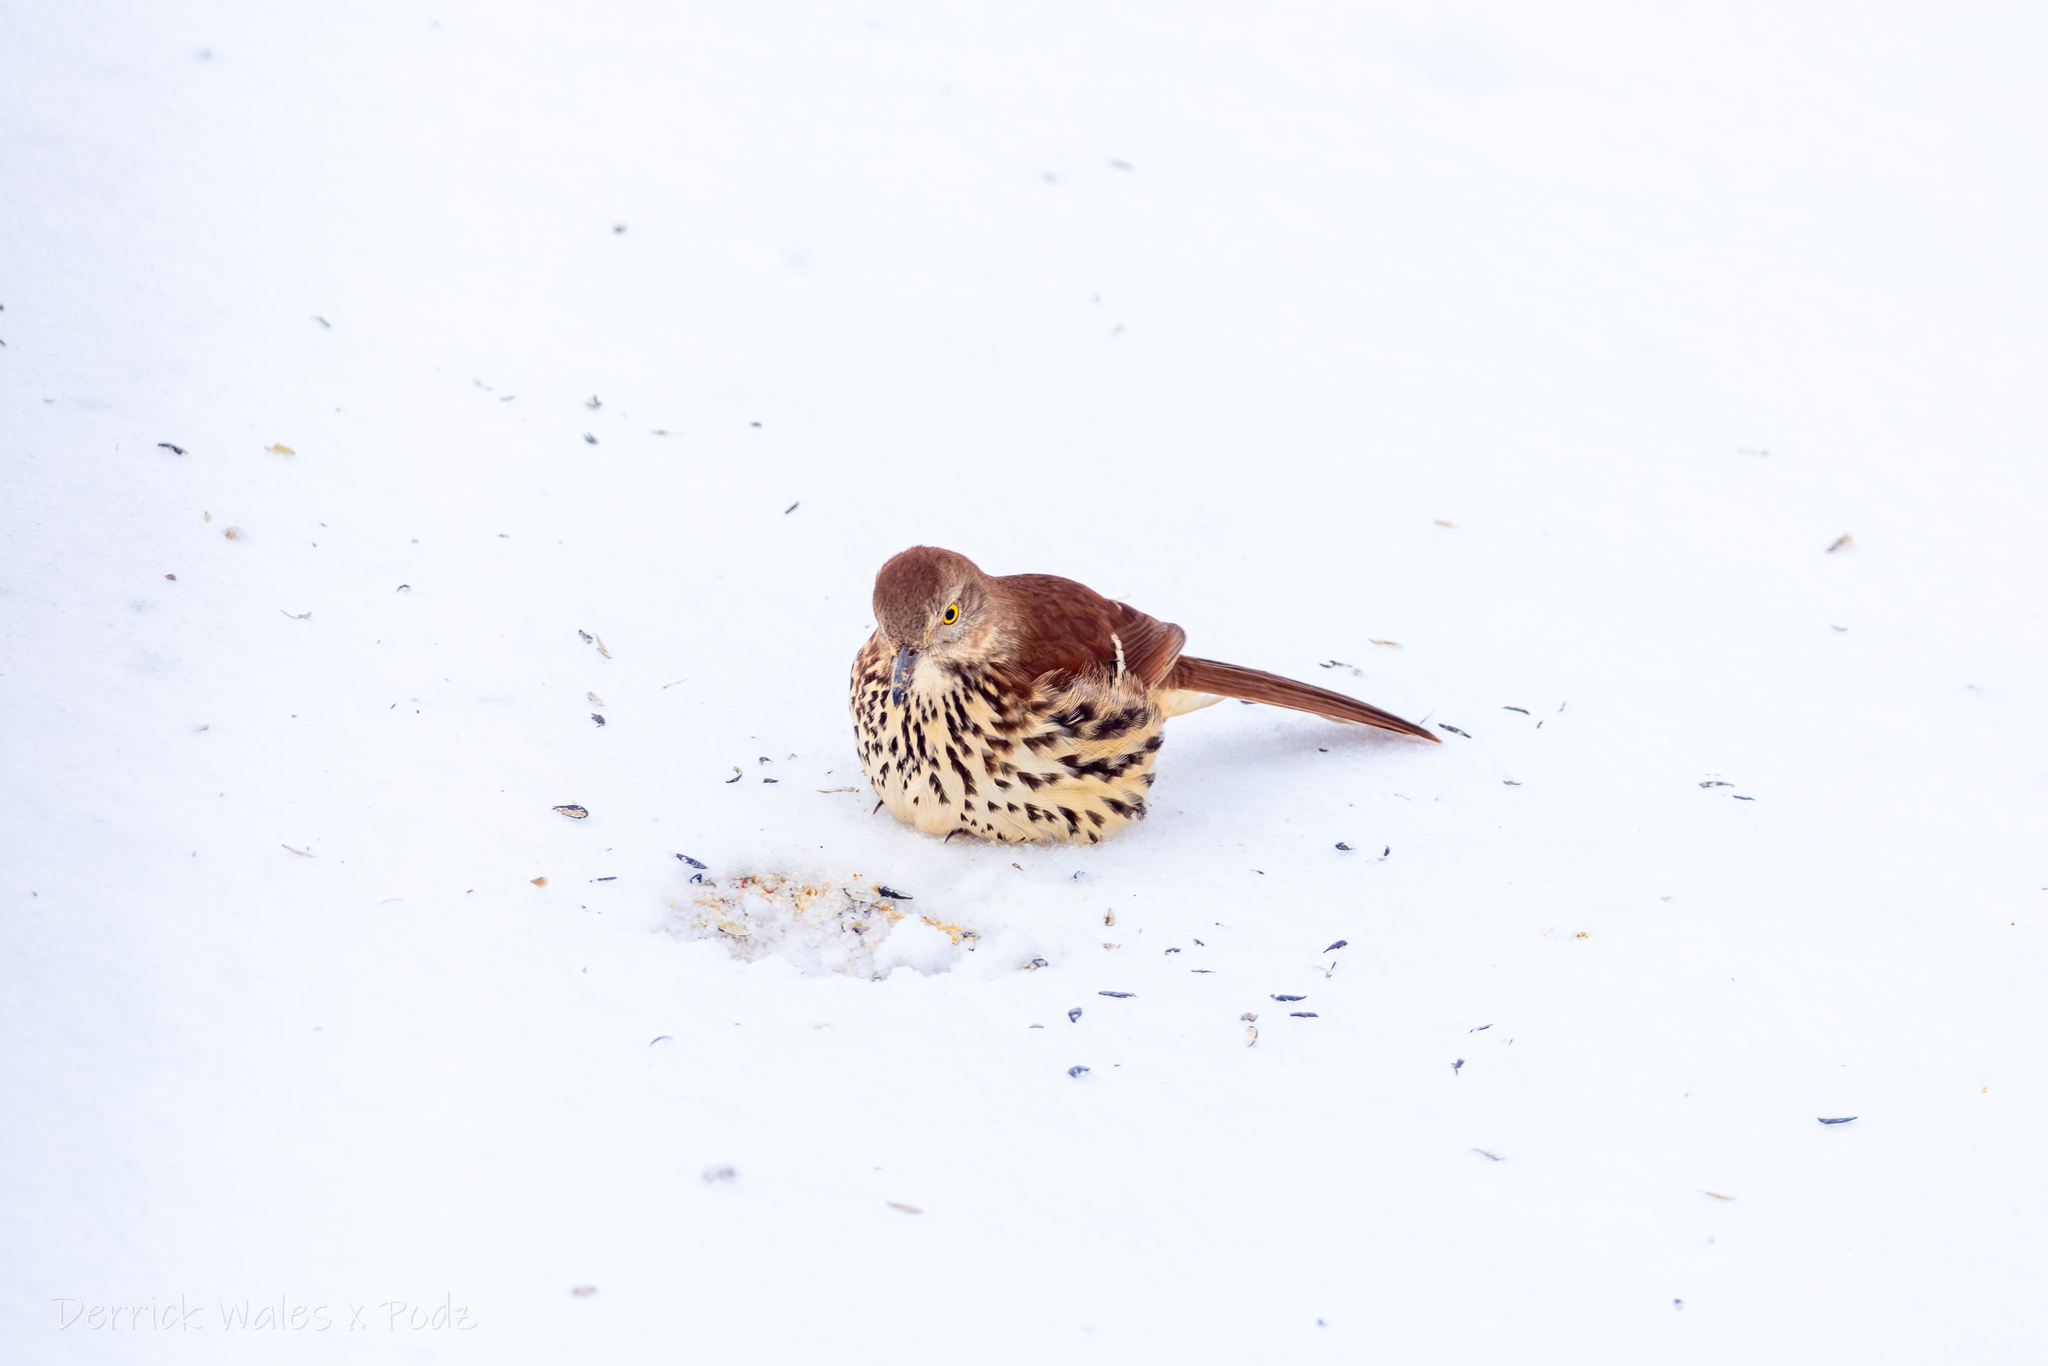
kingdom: Animalia
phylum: Chordata
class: Aves
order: Passeriformes
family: Mimidae
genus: Toxostoma
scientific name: Toxostoma rufum
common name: Brown thrasher
